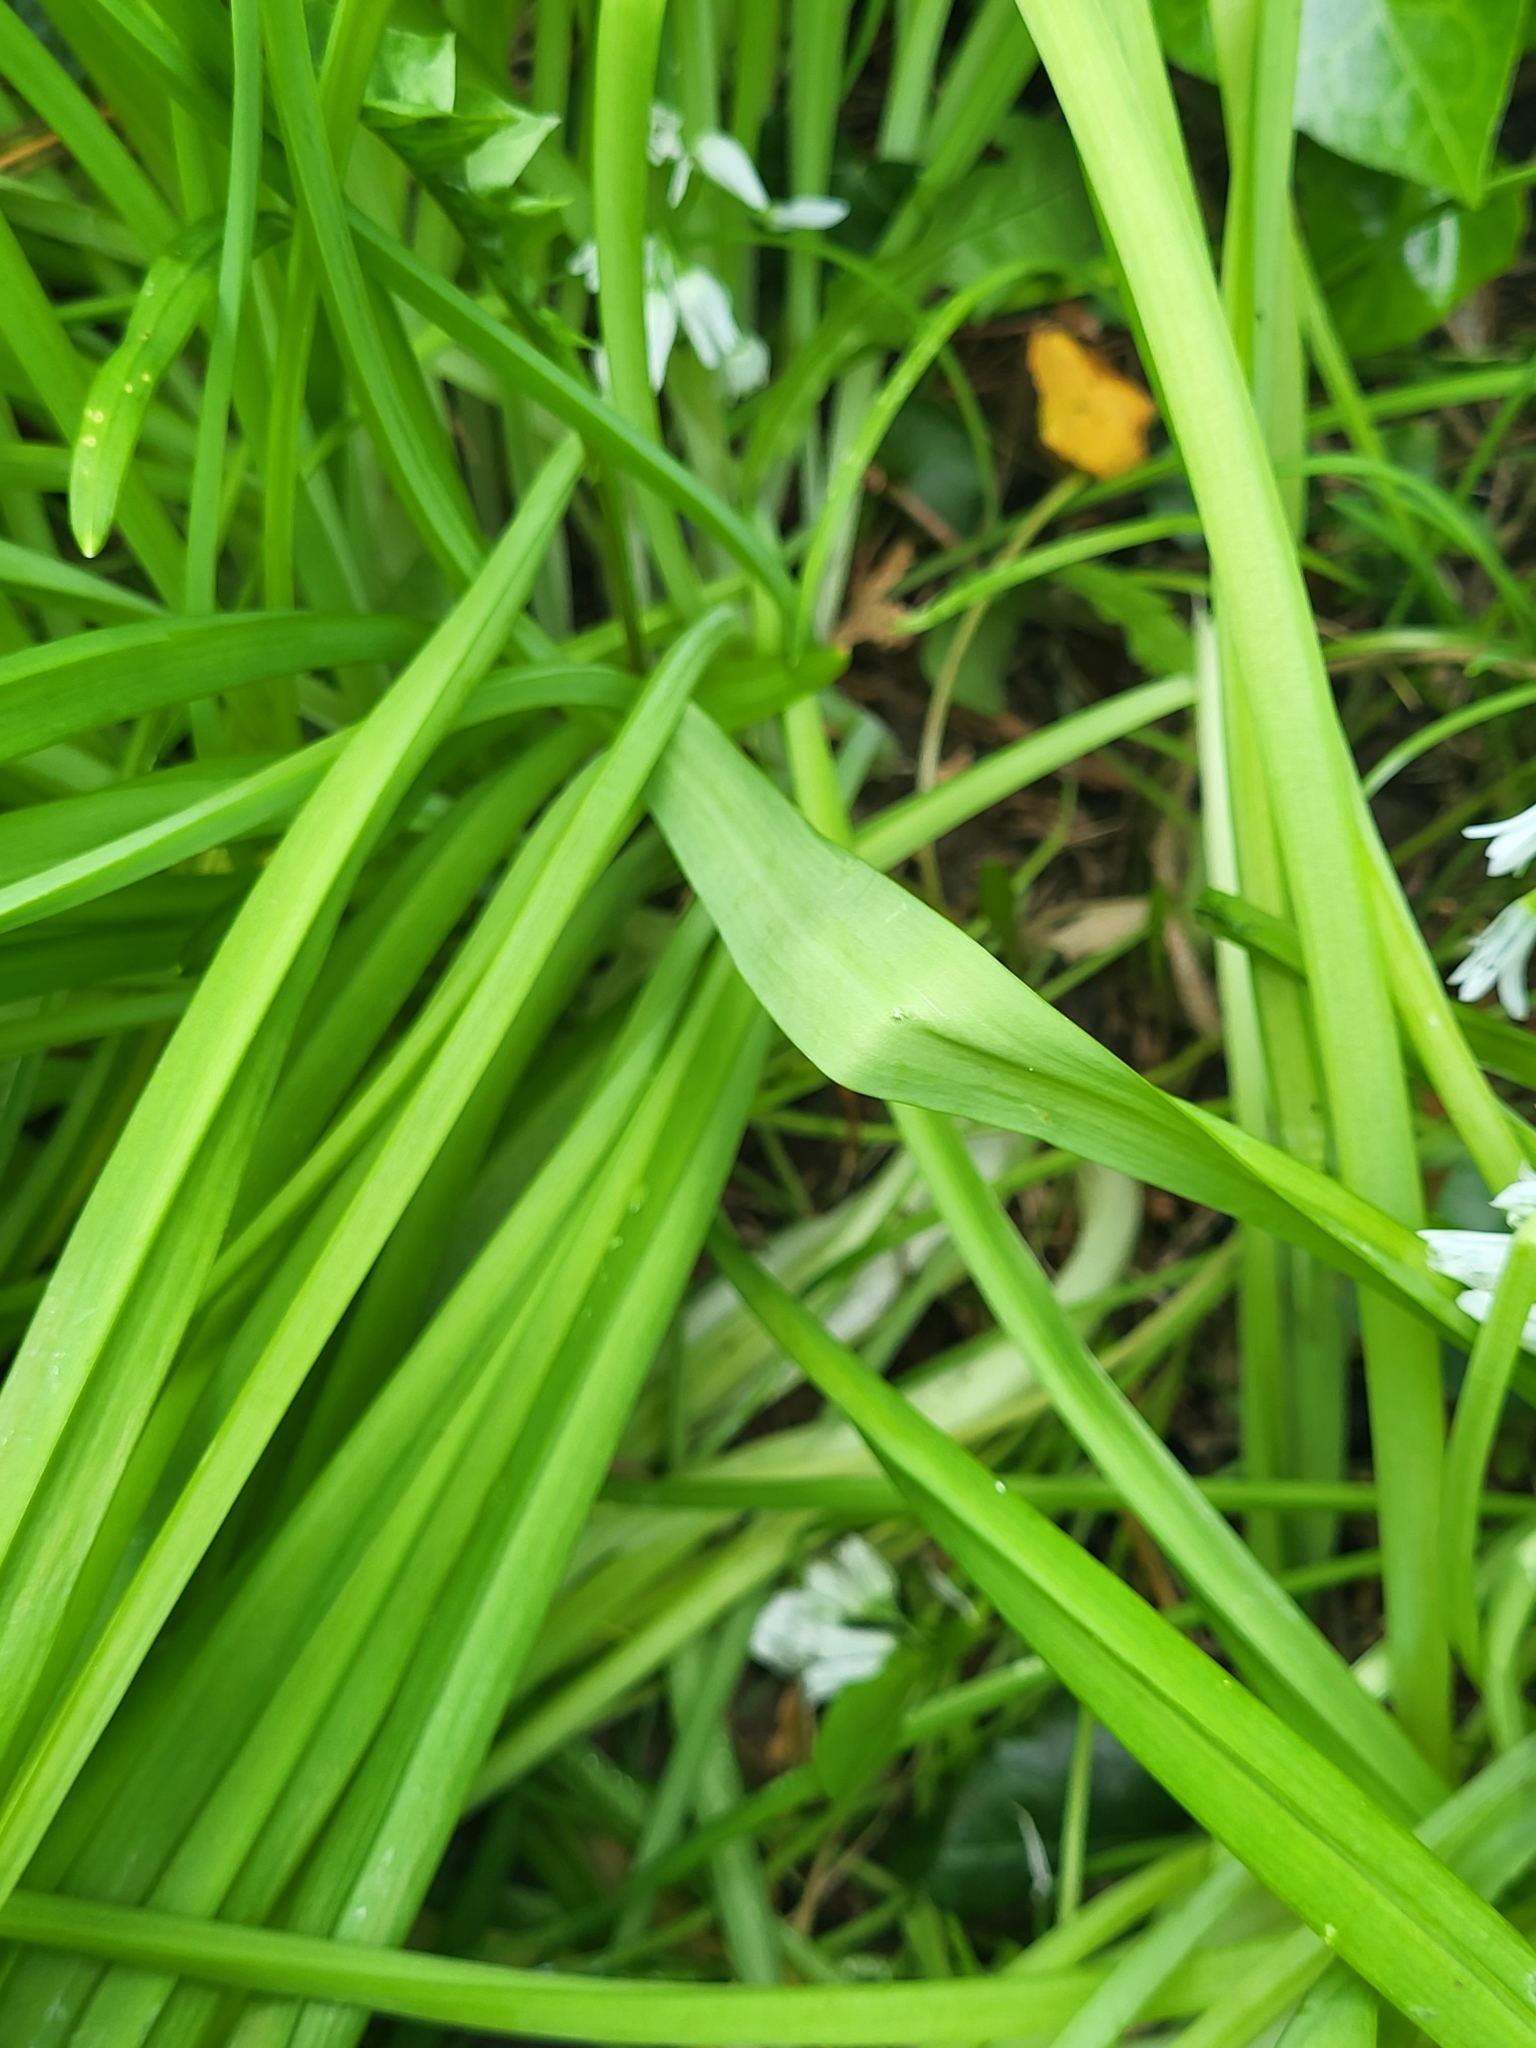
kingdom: Plantae
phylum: Tracheophyta
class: Liliopsida
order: Asparagales
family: Amaryllidaceae
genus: Allium
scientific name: Allium triquetrum
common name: Three-cornered garlic
